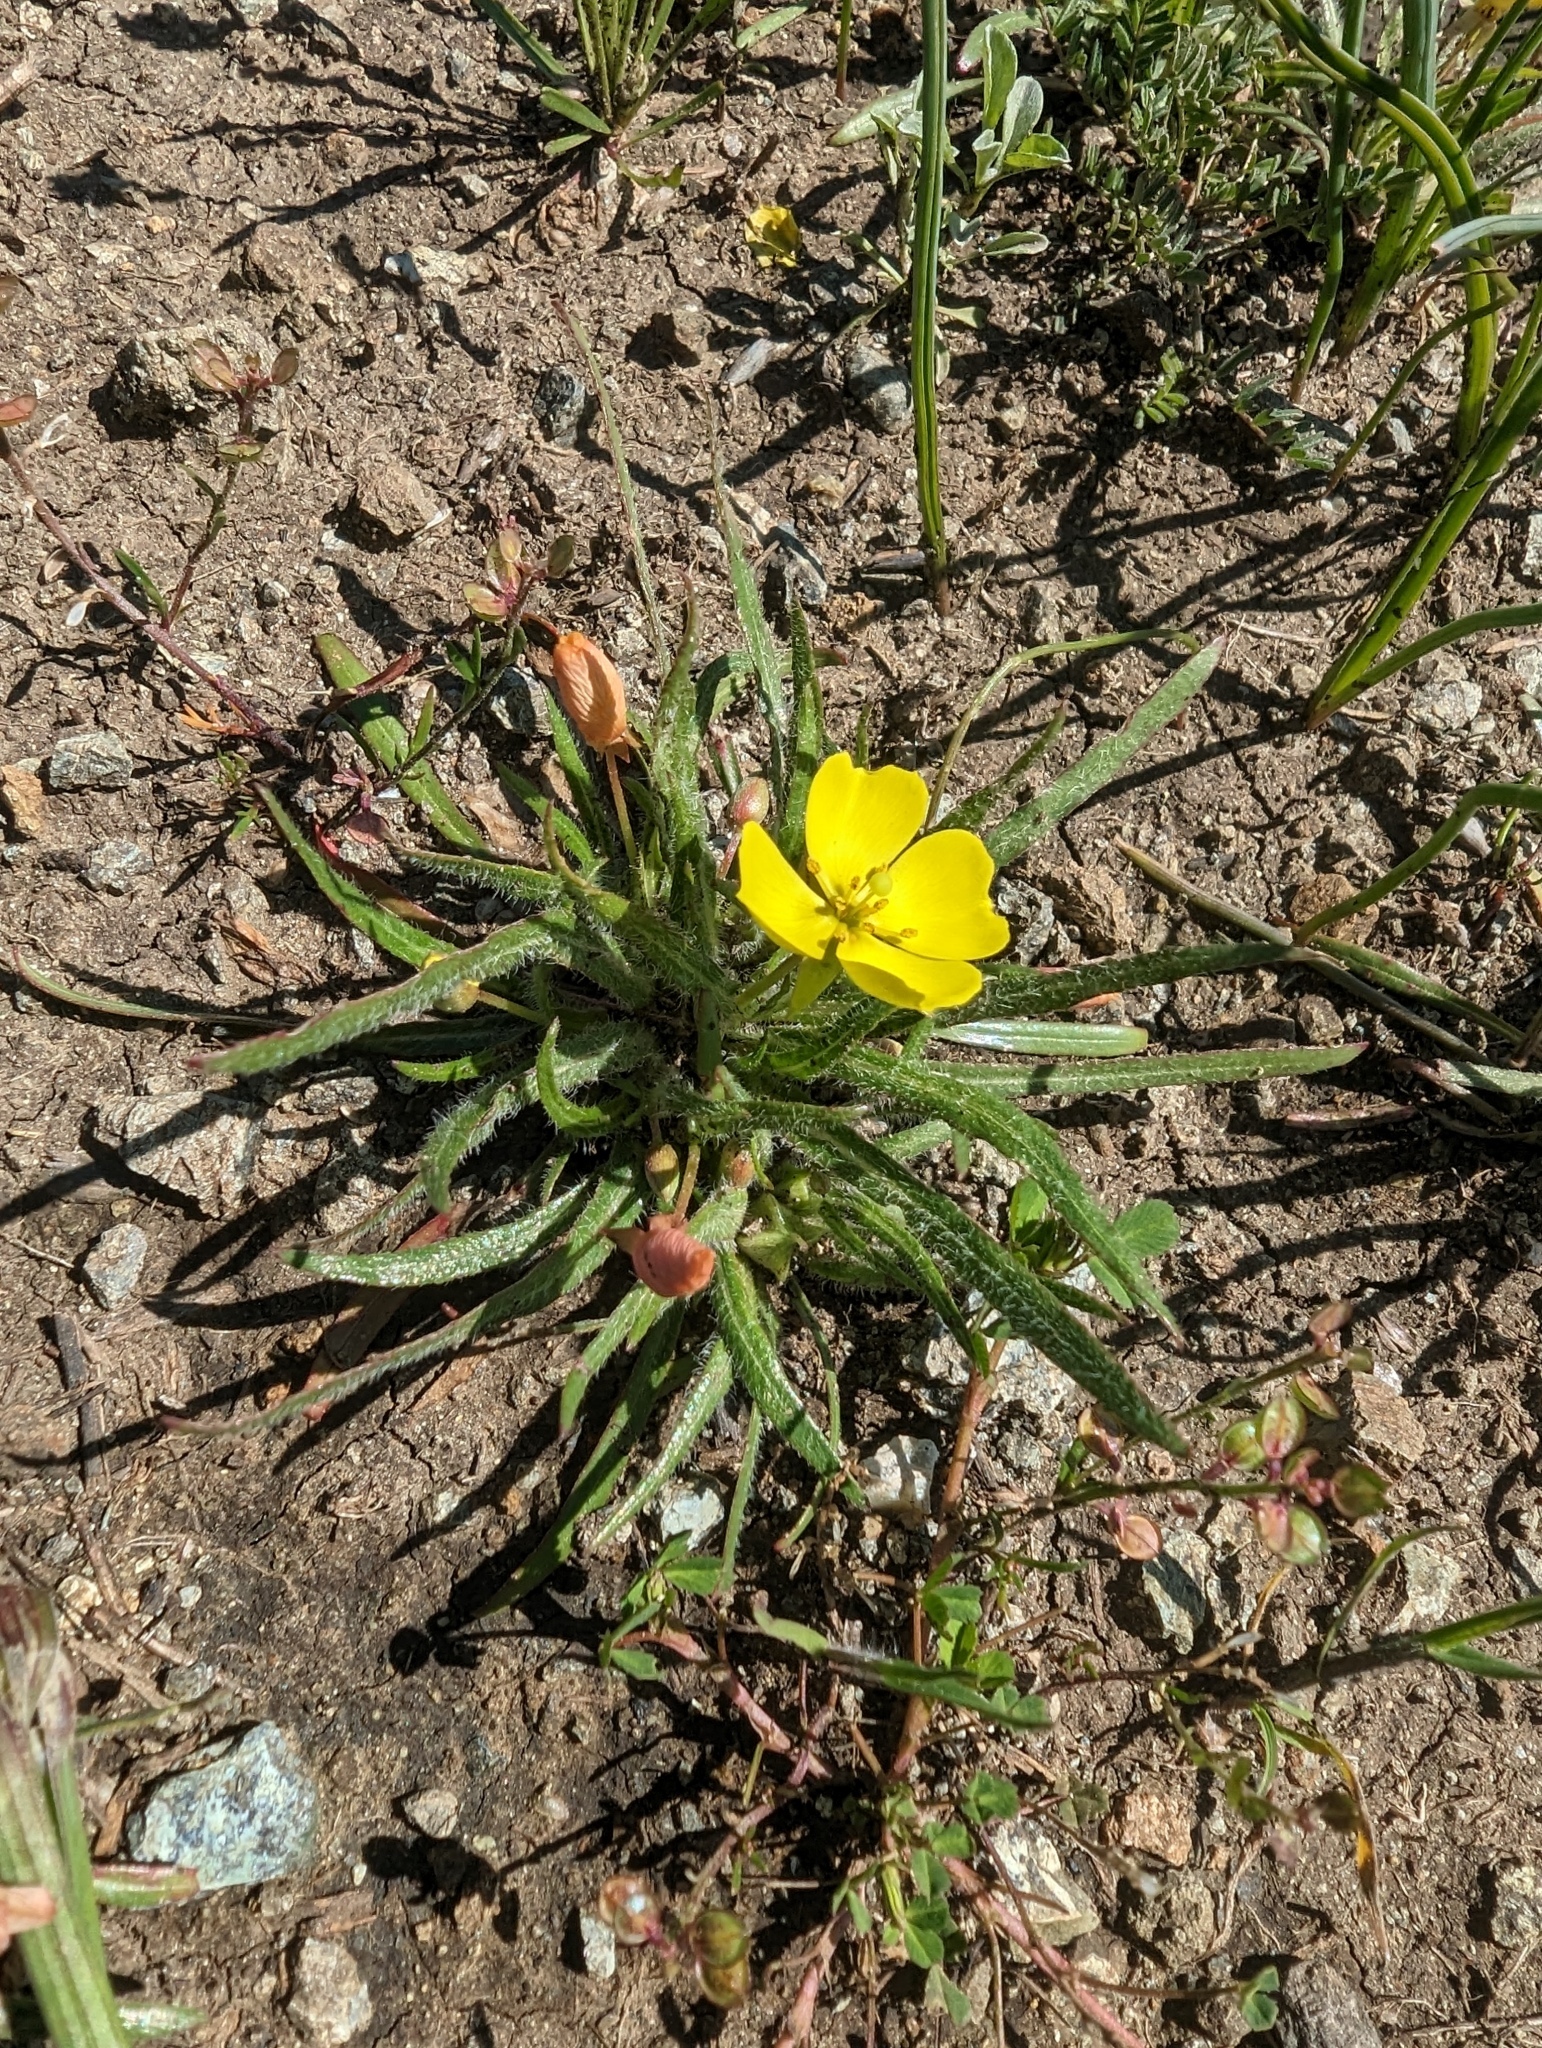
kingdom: Plantae
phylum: Tracheophyta
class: Magnoliopsida
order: Myrtales
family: Onagraceae
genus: Tetrapteron
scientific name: Tetrapteron graciliflorum
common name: Hill suncup
